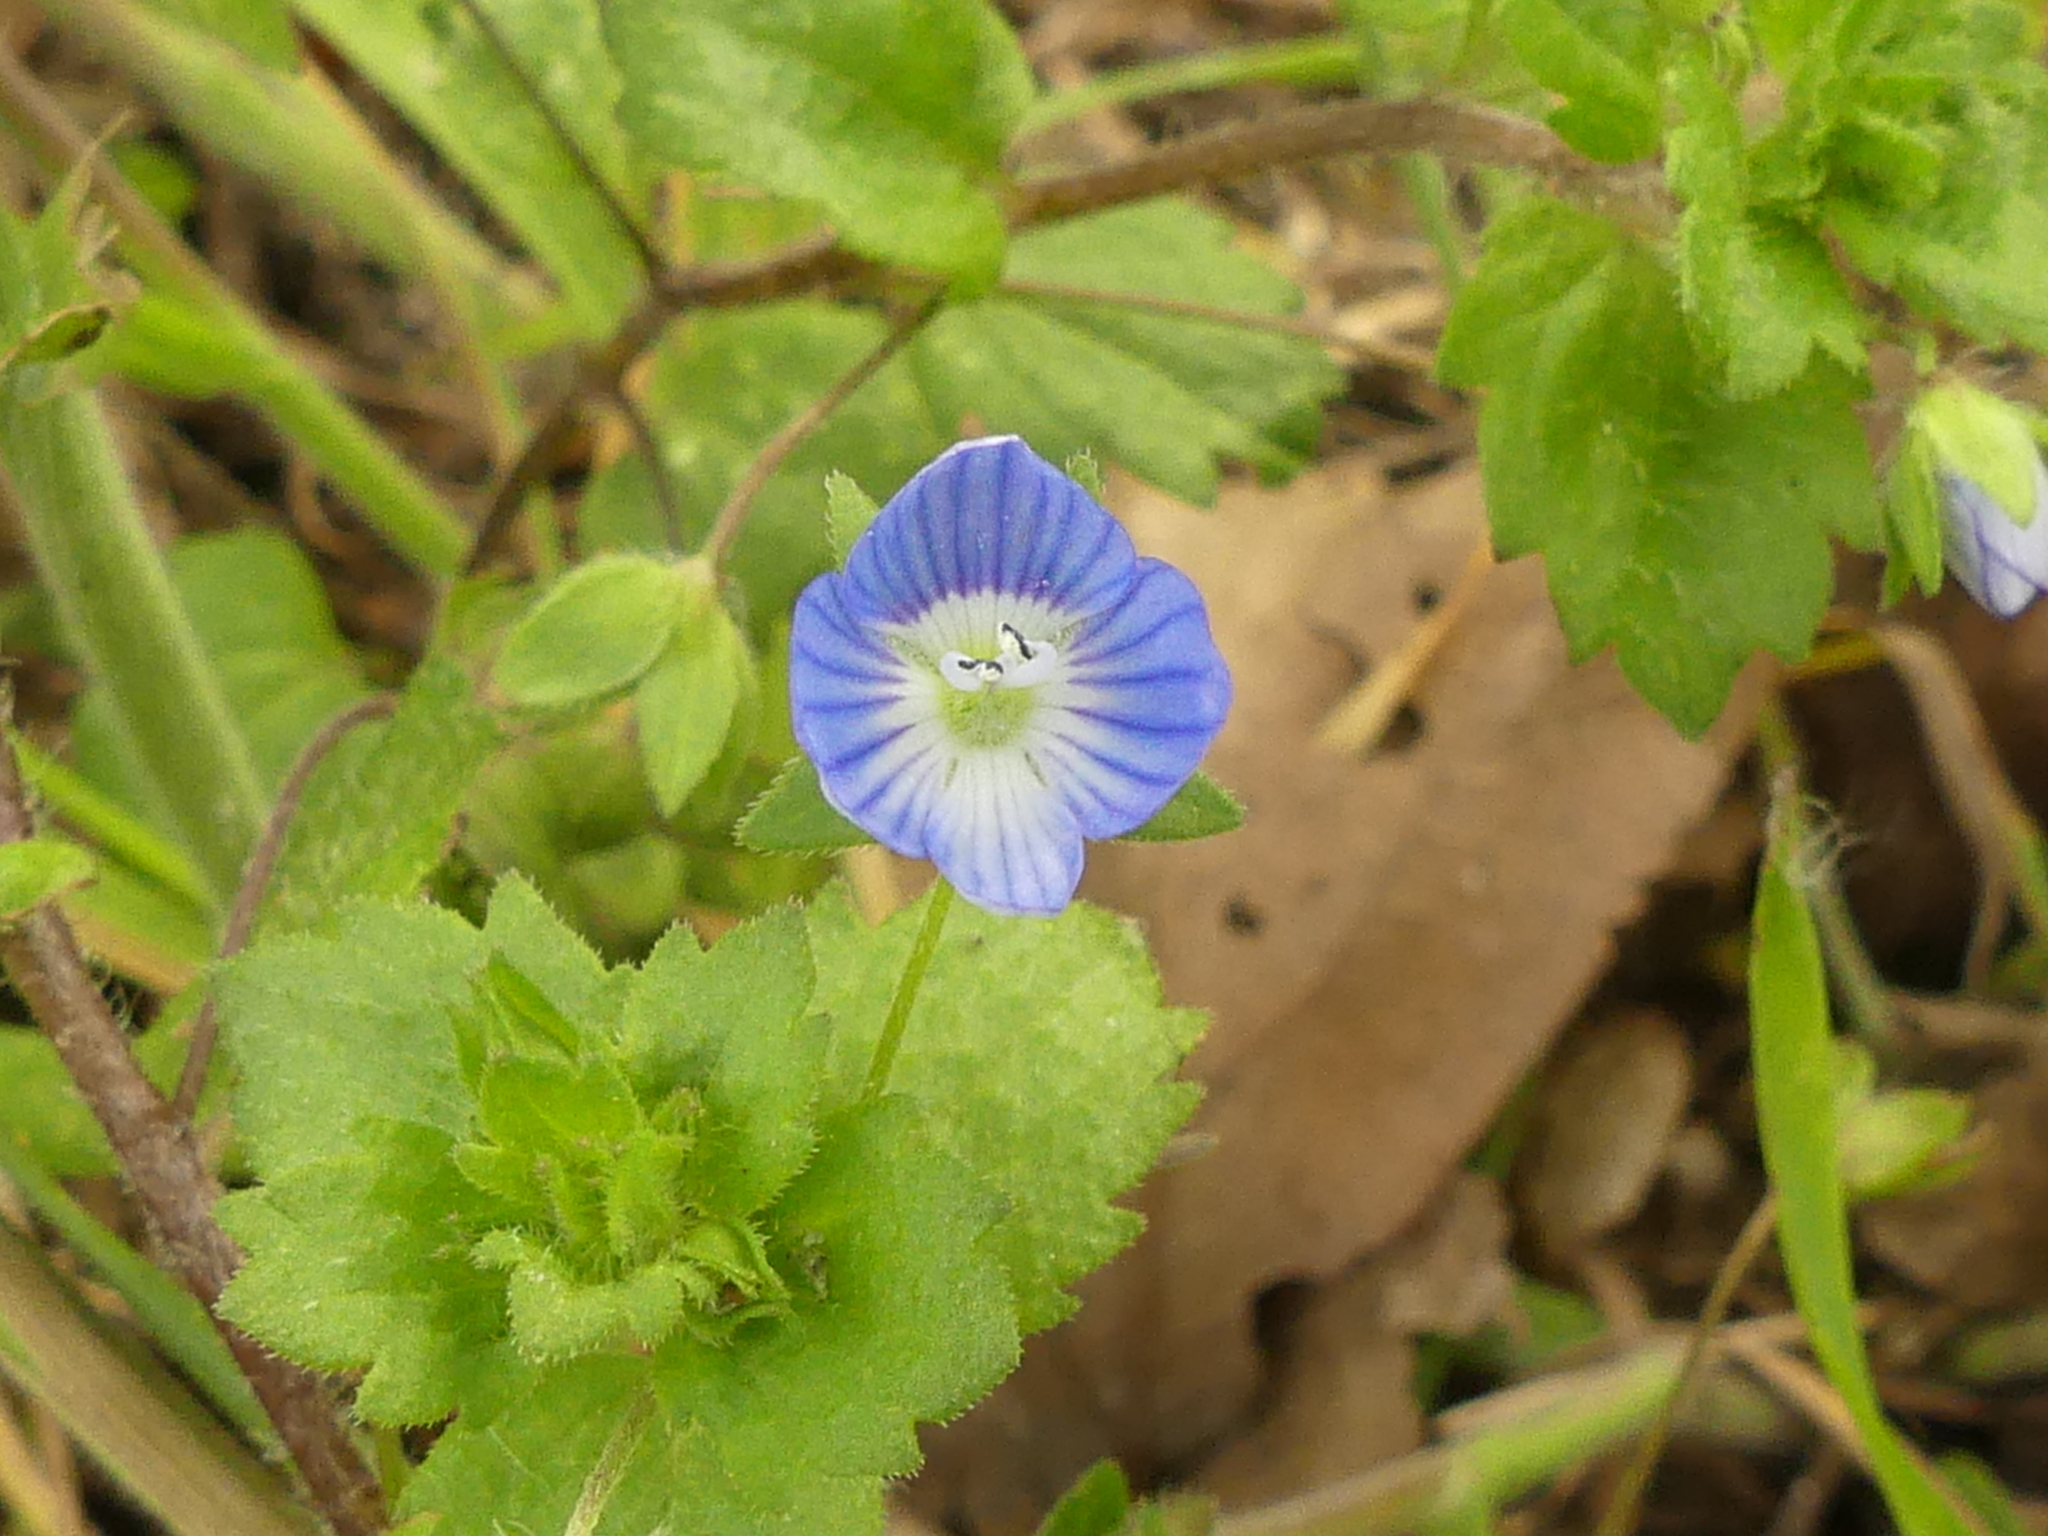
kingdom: Plantae
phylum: Tracheophyta
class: Magnoliopsida
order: Lamiales
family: Plantaginaceae
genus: Veronica
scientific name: Veronica persica
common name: Common field-speedwell
